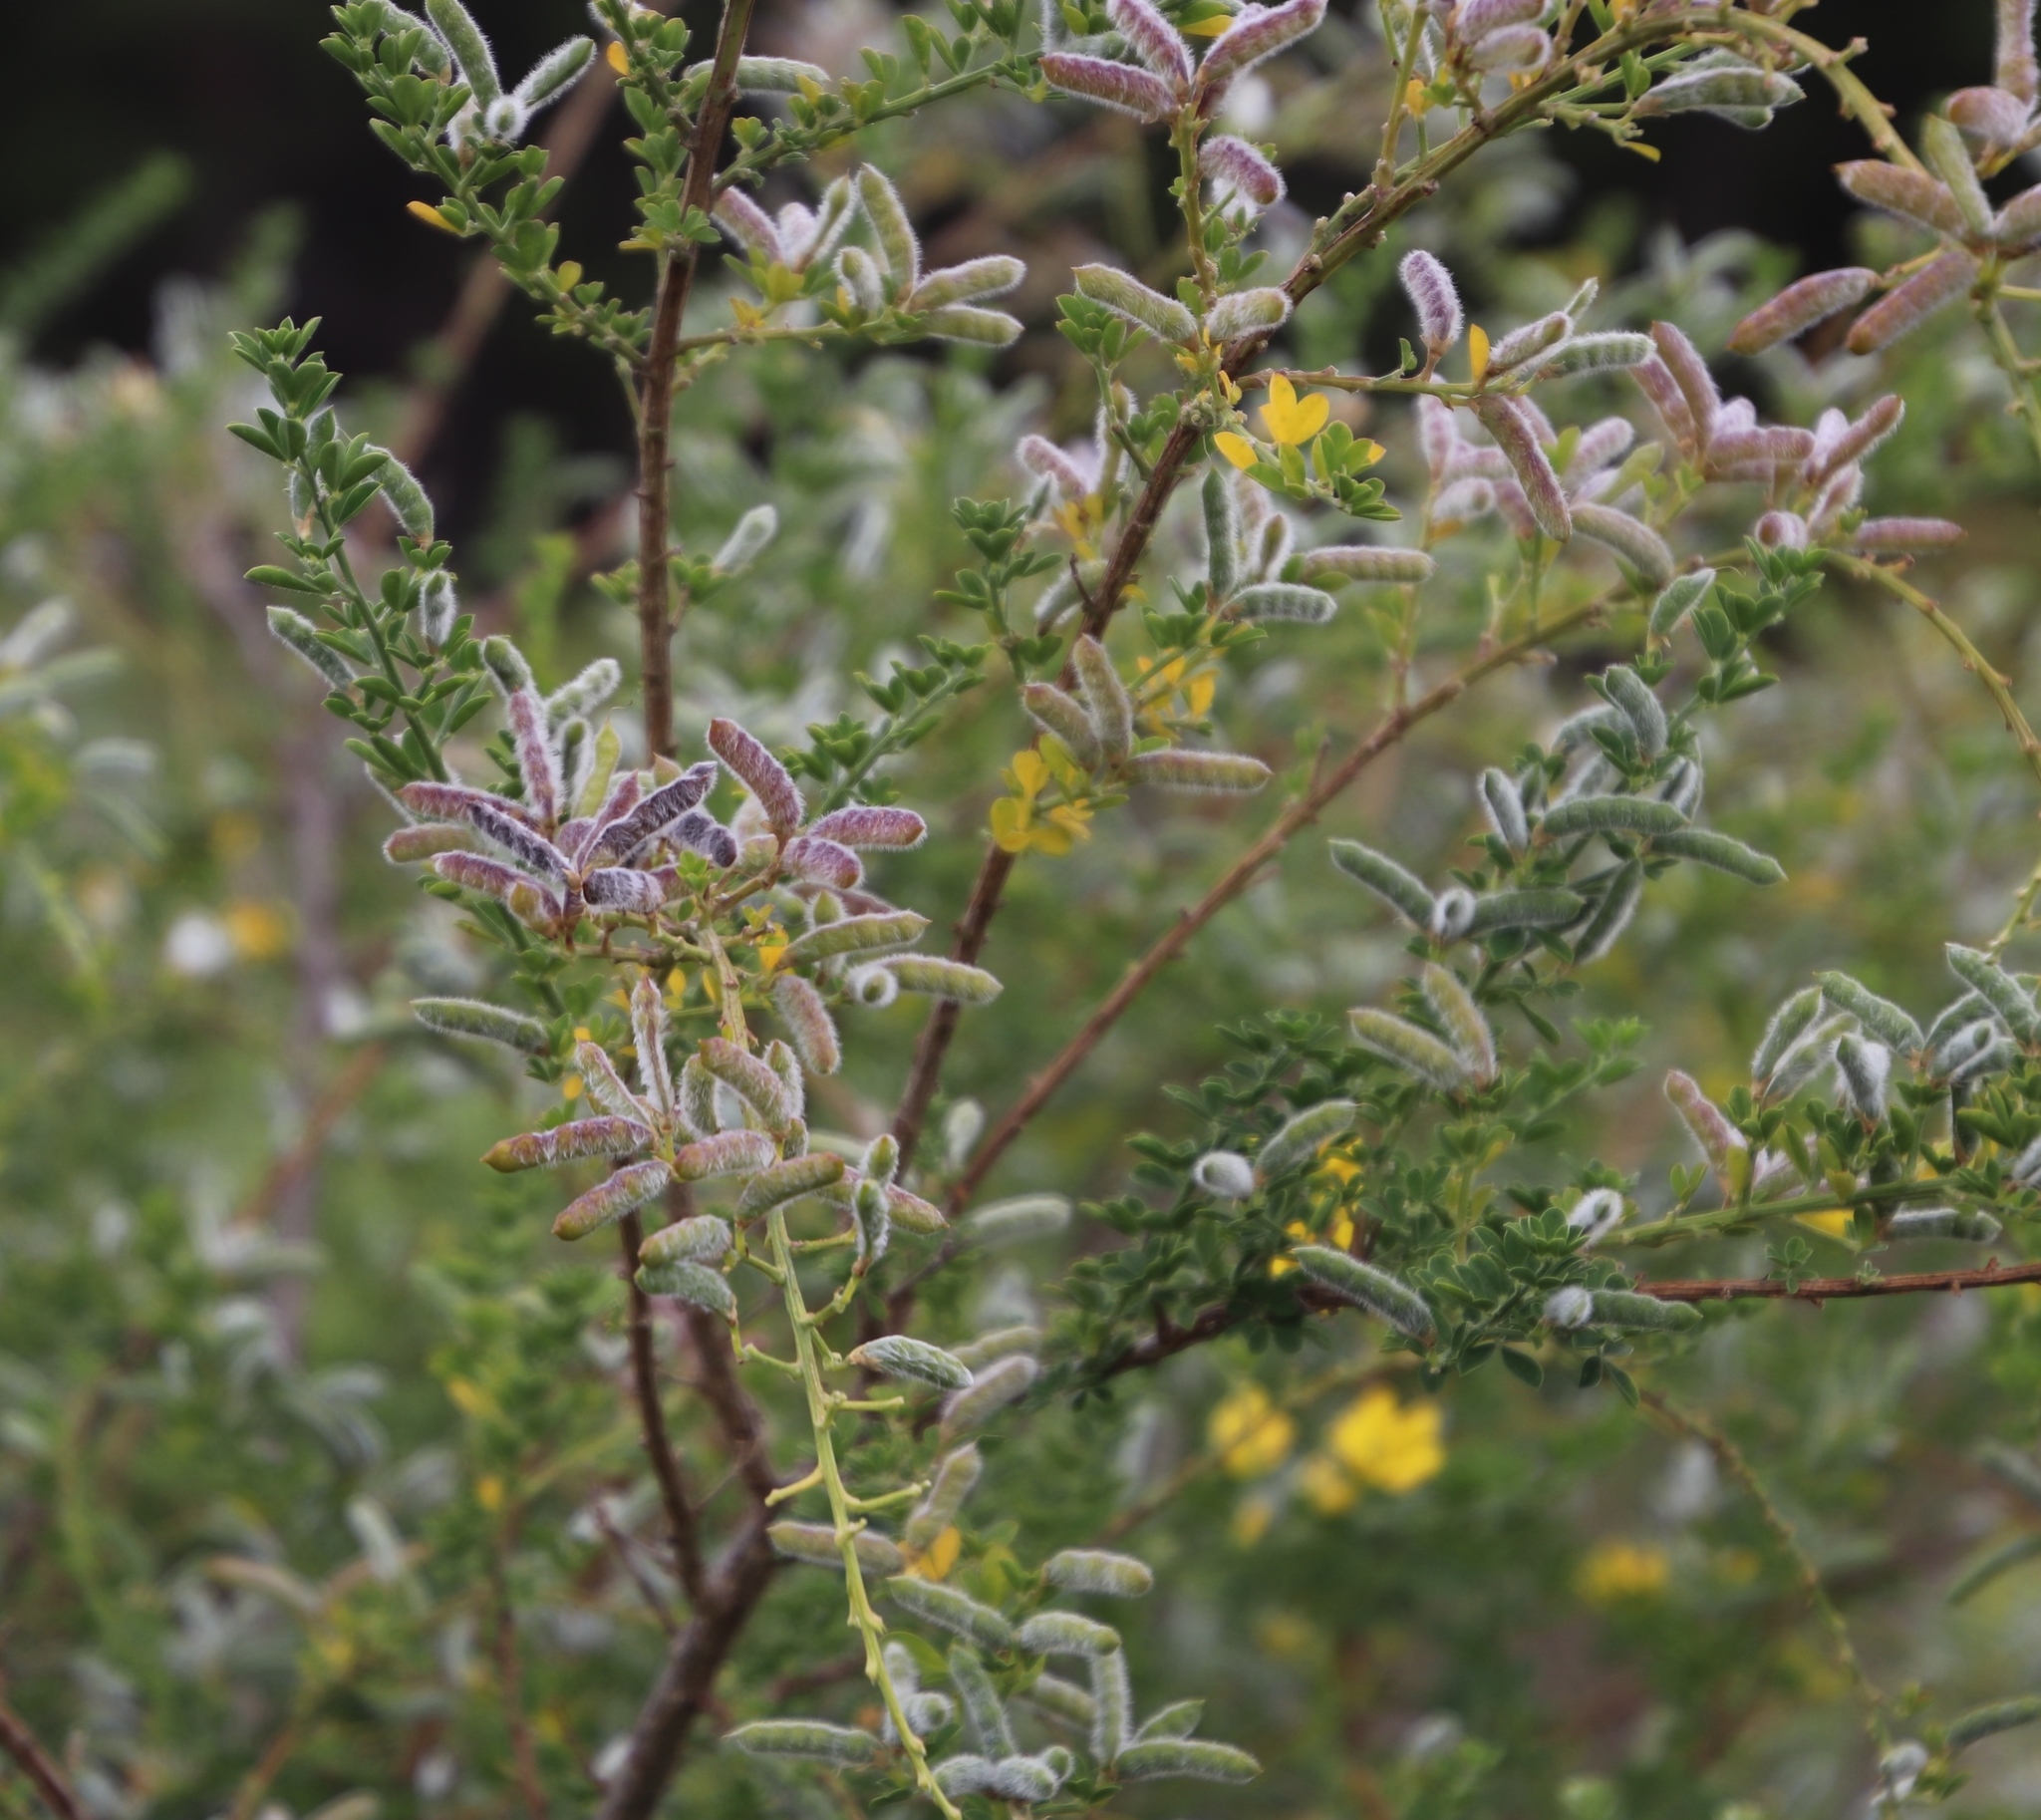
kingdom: Plantae
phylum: Tracheophyta
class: Magnoliopsida
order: Fabales
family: Fabaceae
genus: Genista
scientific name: Genista monspessulana
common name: Montpellier broom
